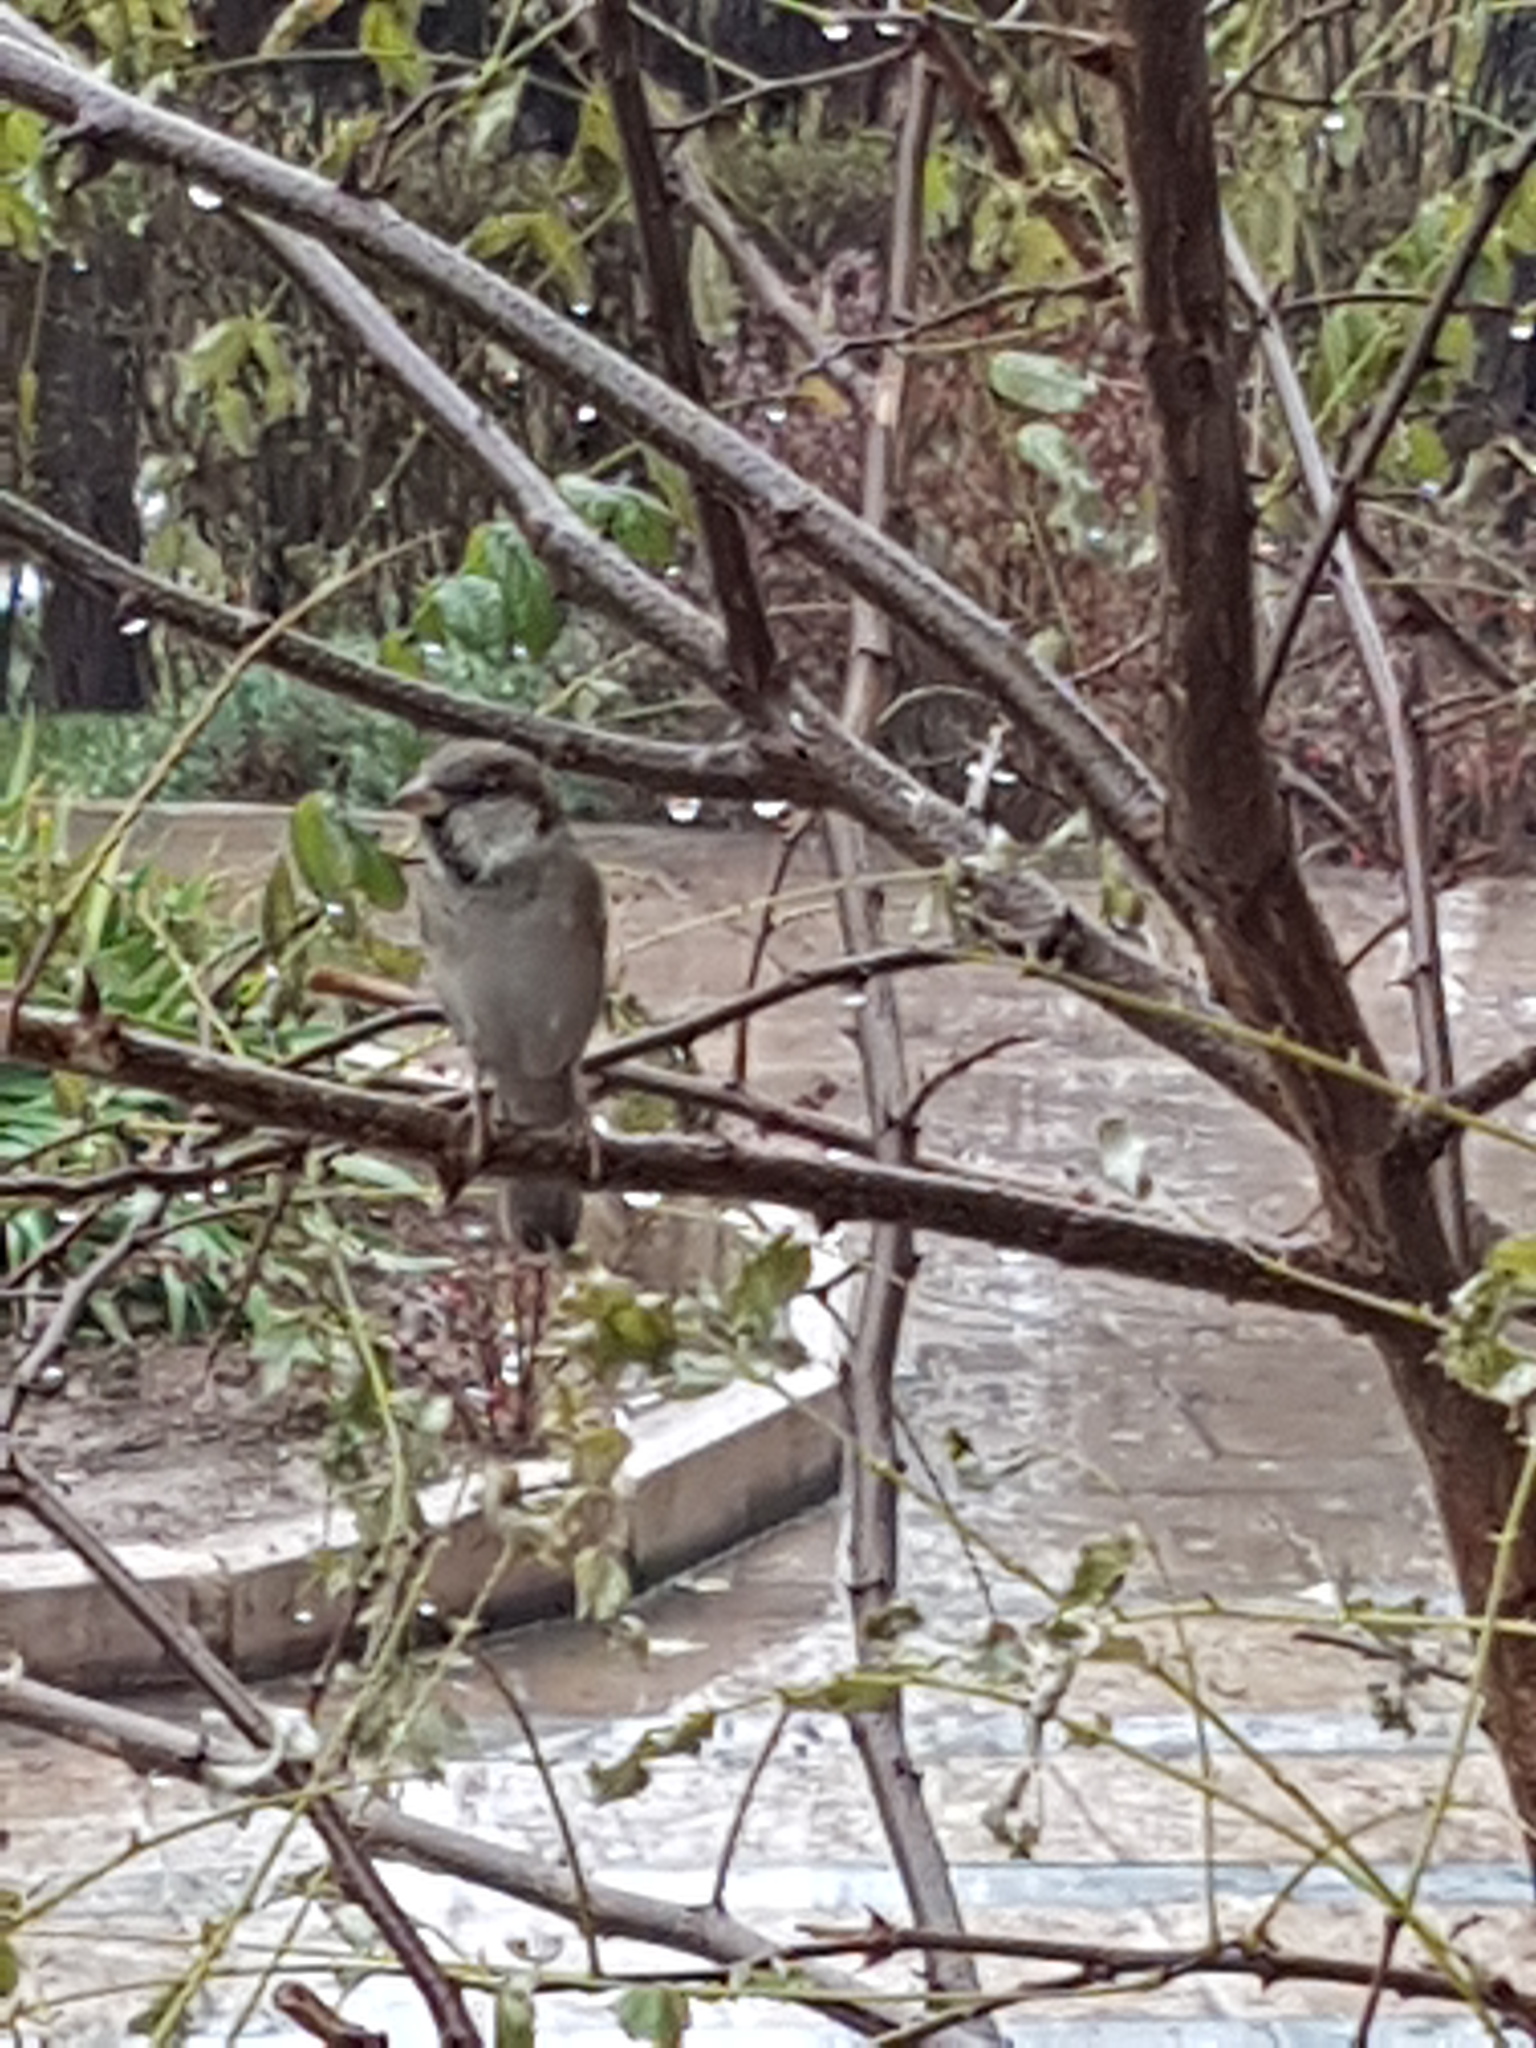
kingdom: Animalia
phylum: Chordata
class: Aves
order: Passeriformes
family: Passeridae
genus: Passer
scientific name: Passer domesticus
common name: House sparrow
